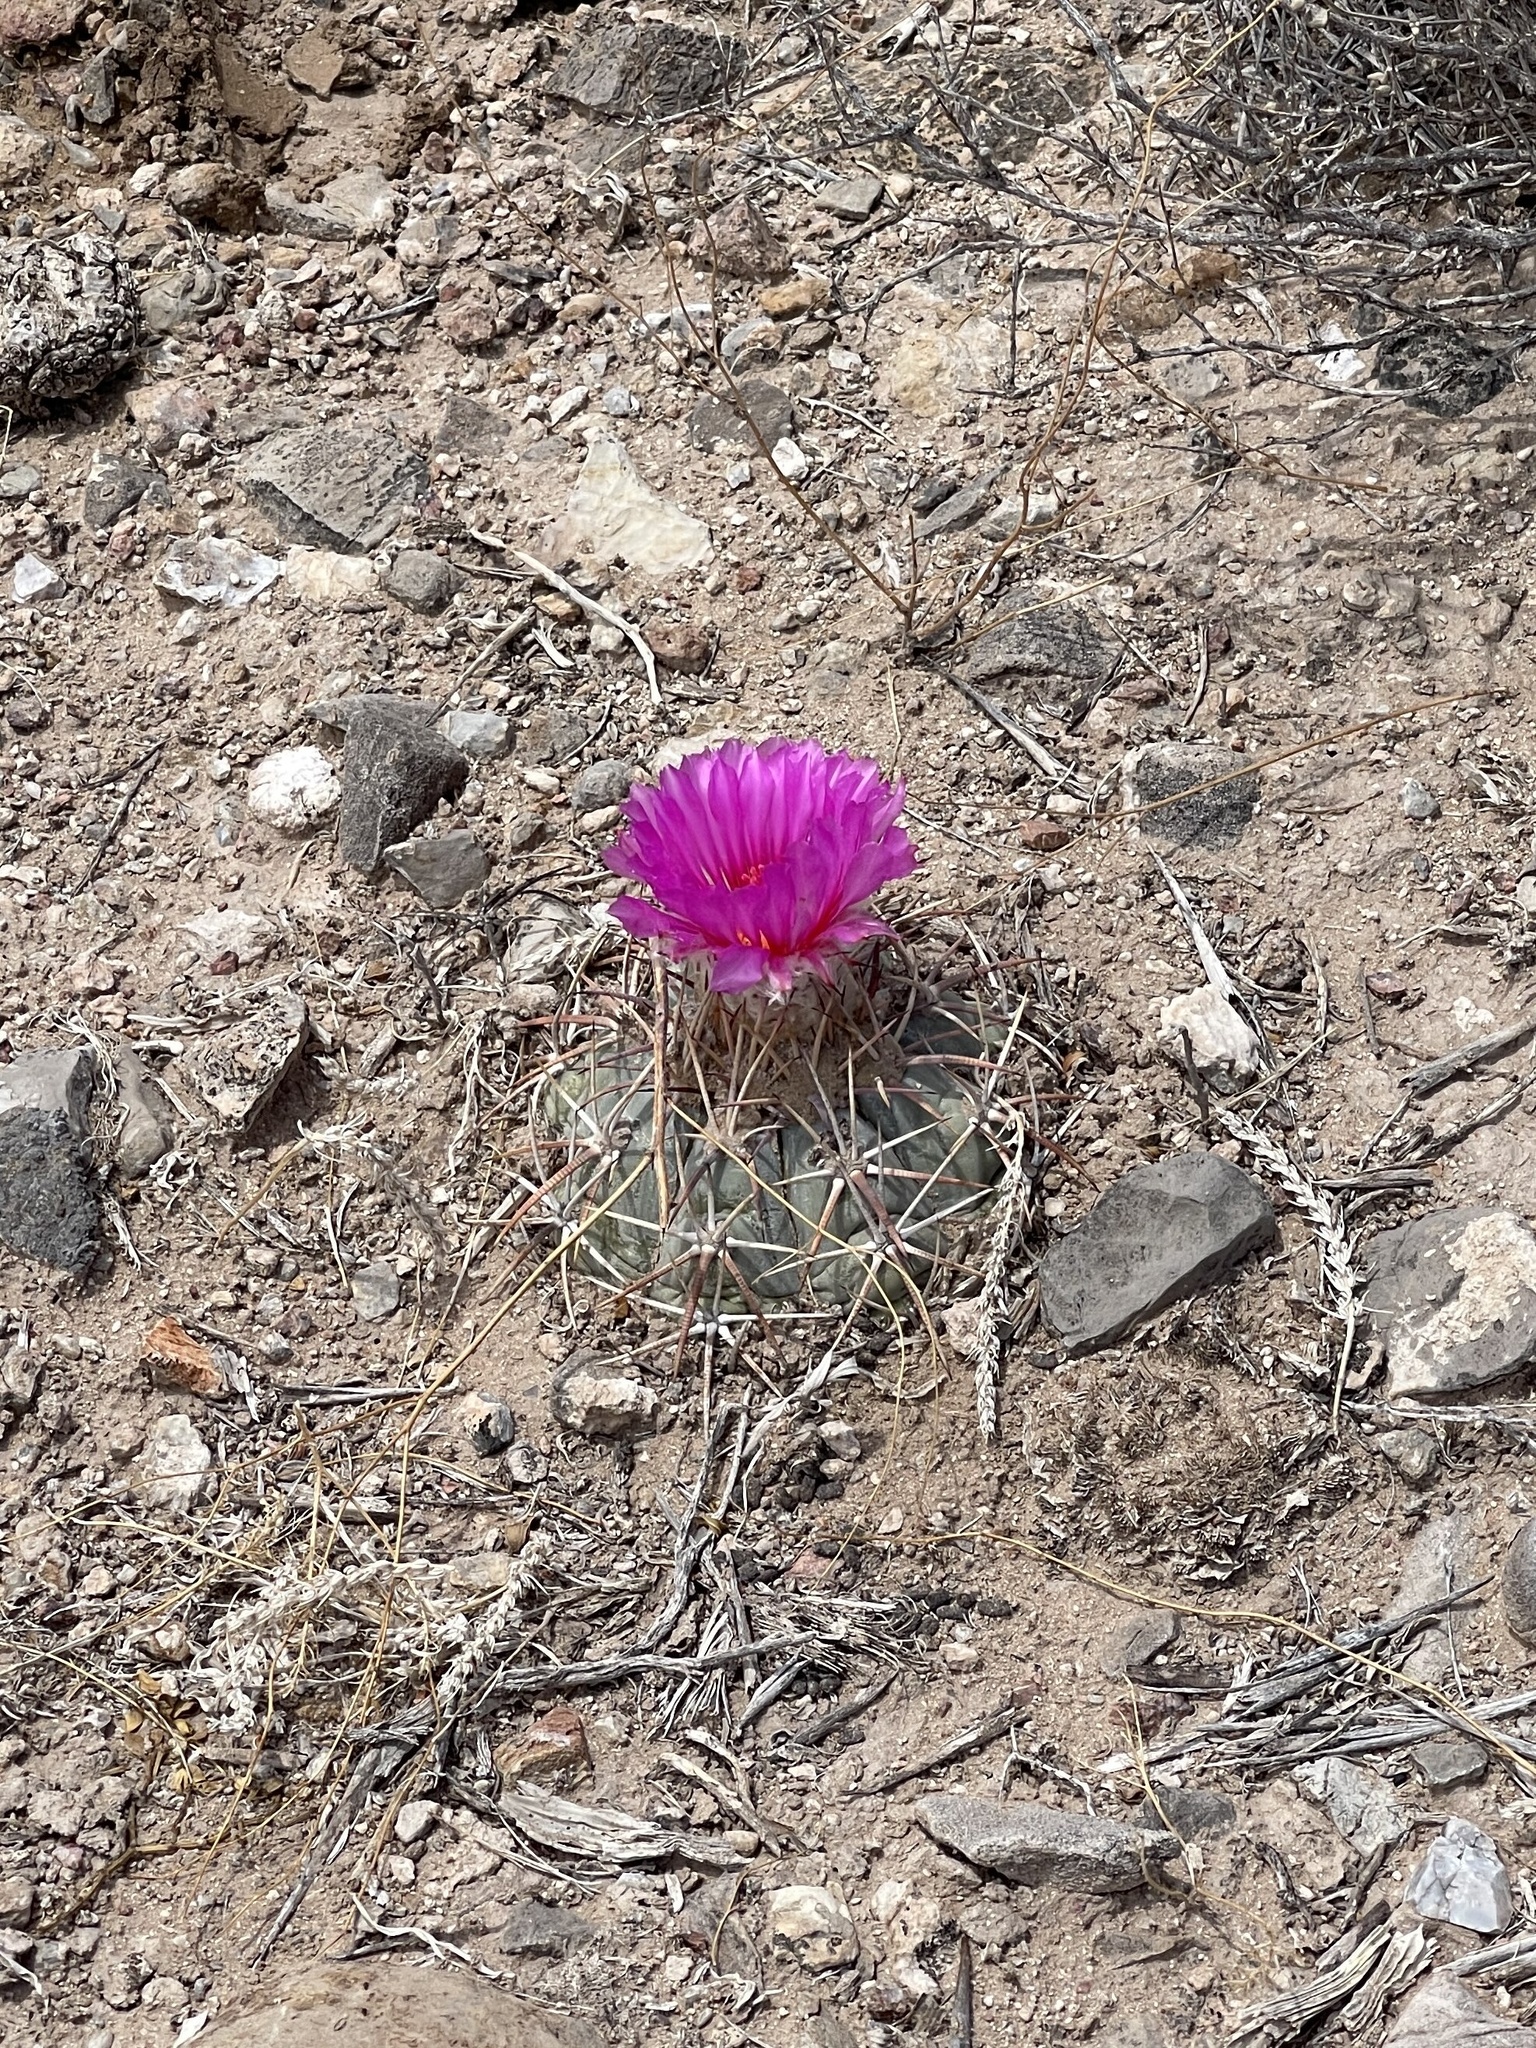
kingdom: Plantae
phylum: Tracheophyta
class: Magnoliopsida
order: Caryophyllales
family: Cactaceae
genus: Echinocactus
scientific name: Echinocactus horizonthalonius
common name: Devilshead
